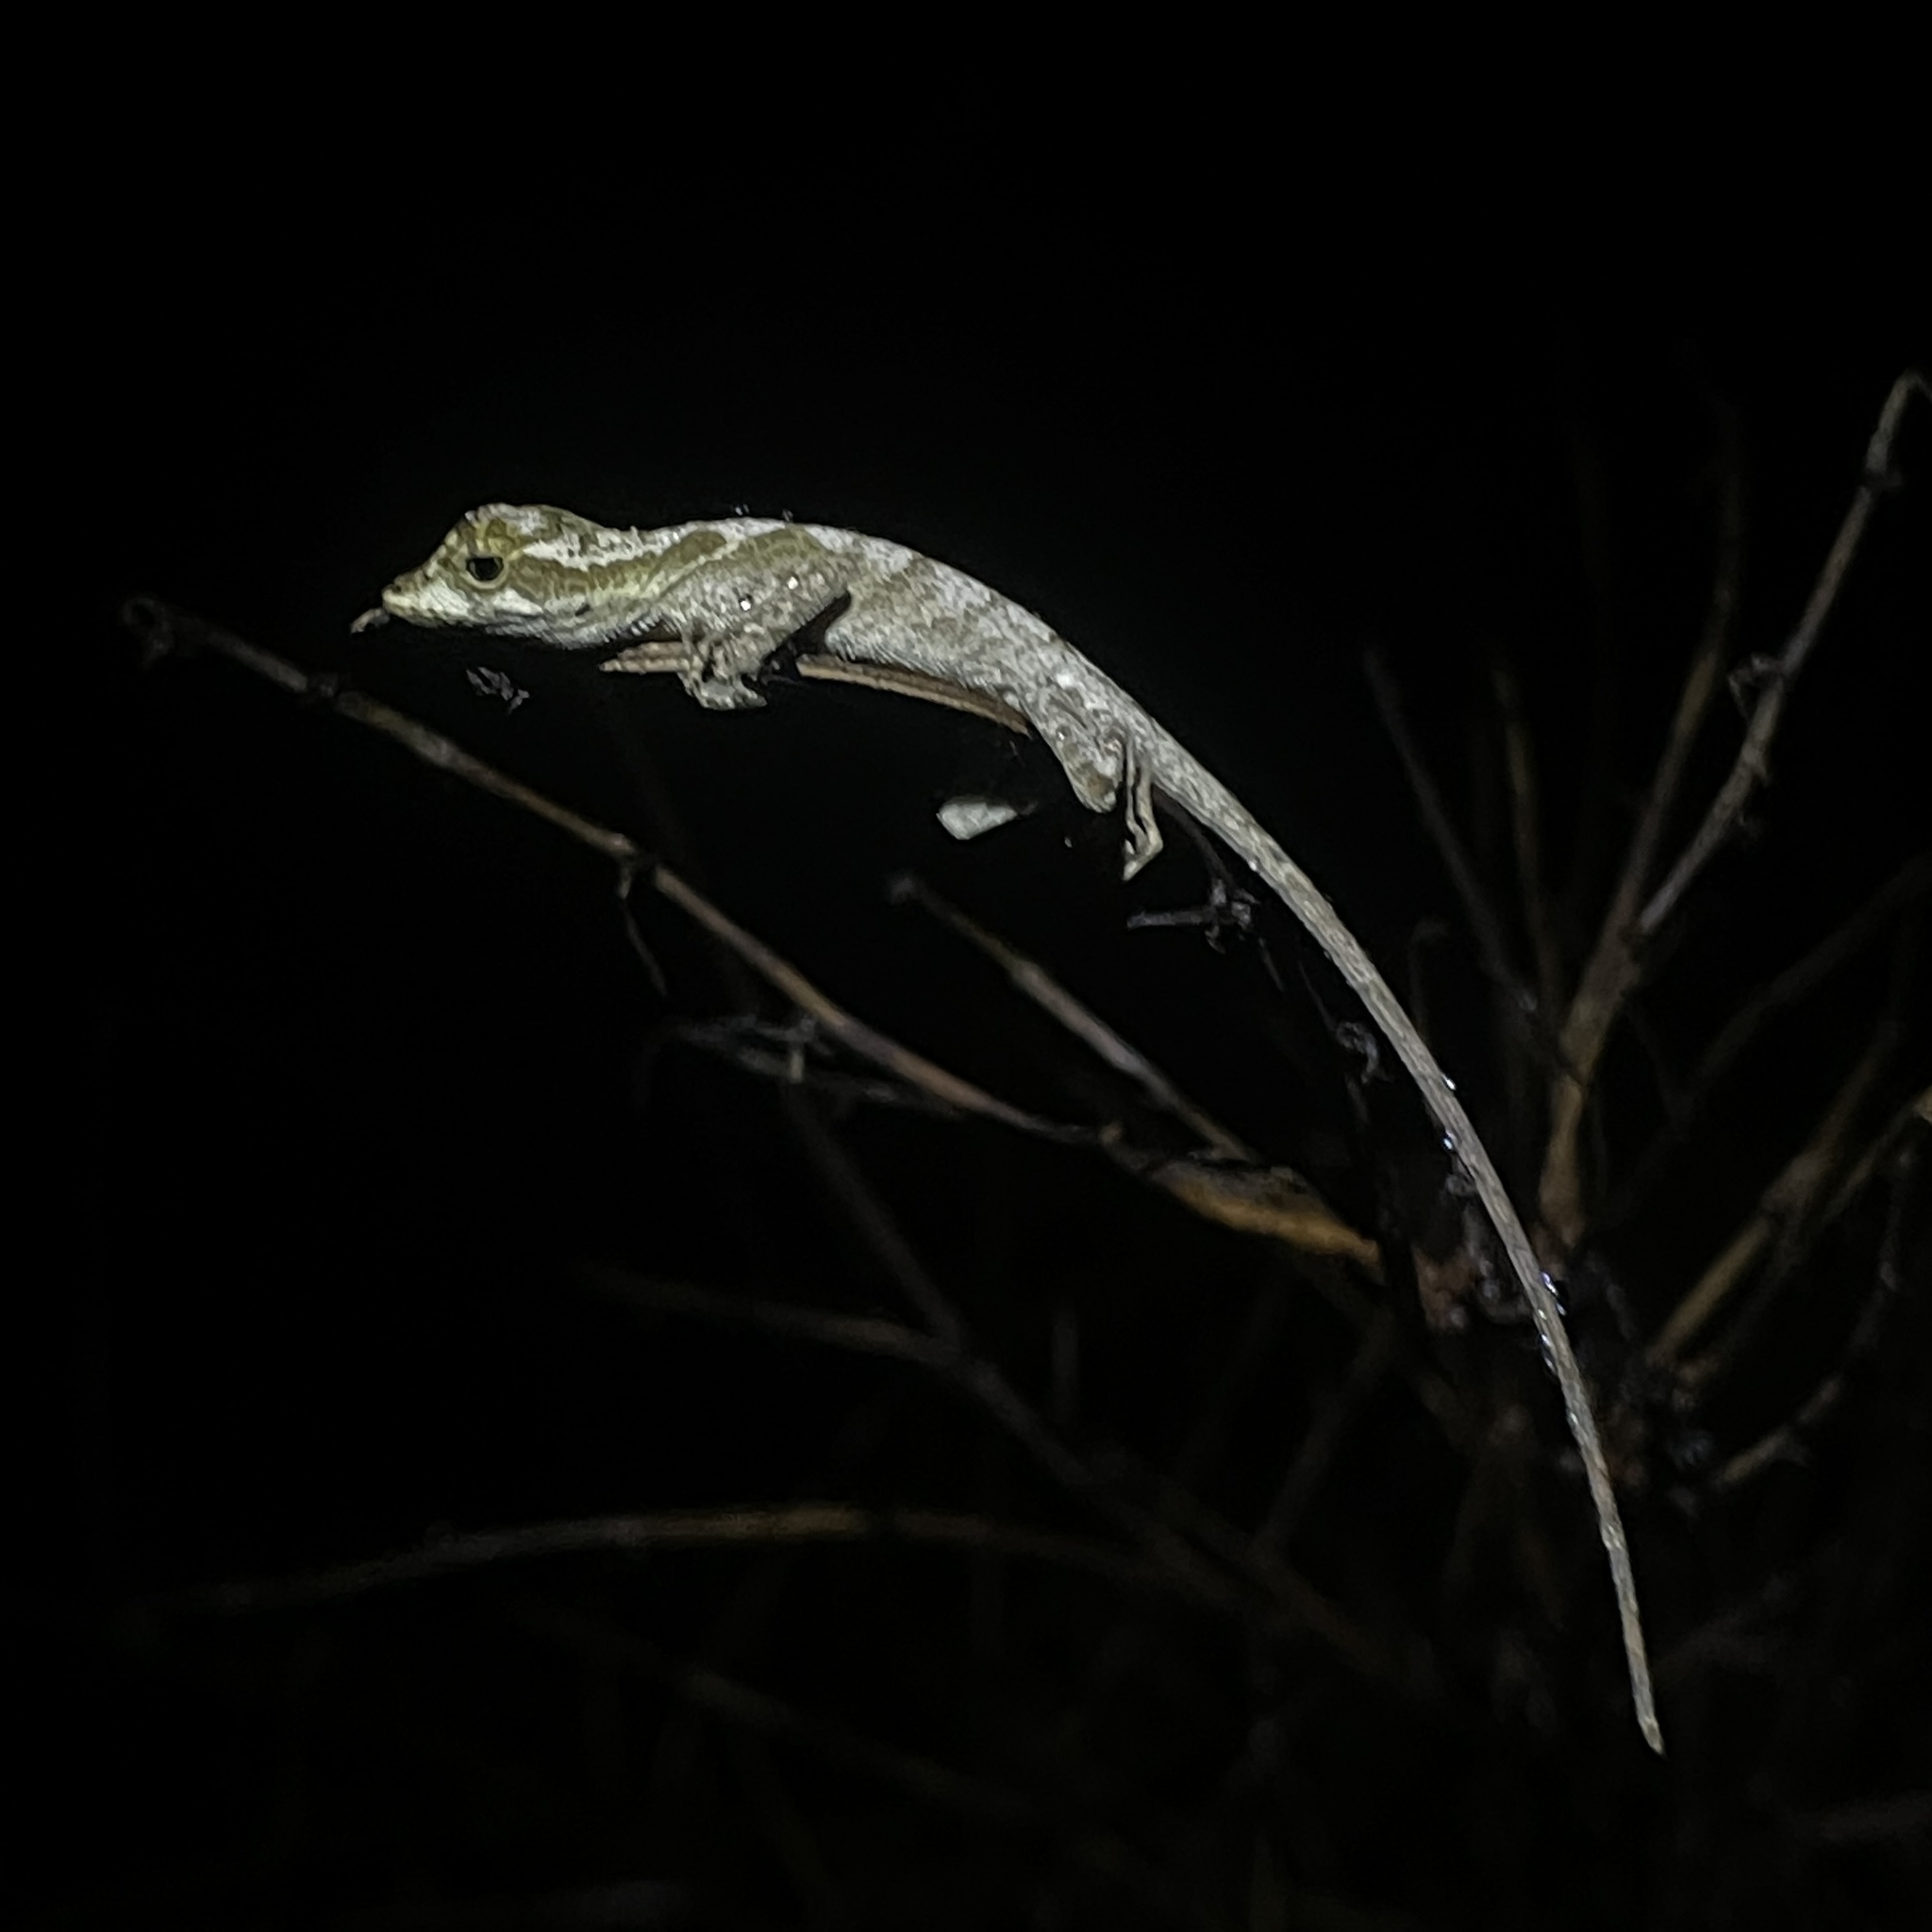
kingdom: Animalia
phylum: Chordata
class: Squamata
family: Dactyloidae
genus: Anolis
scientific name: Anolis planiceps
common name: Goldenscale anole
